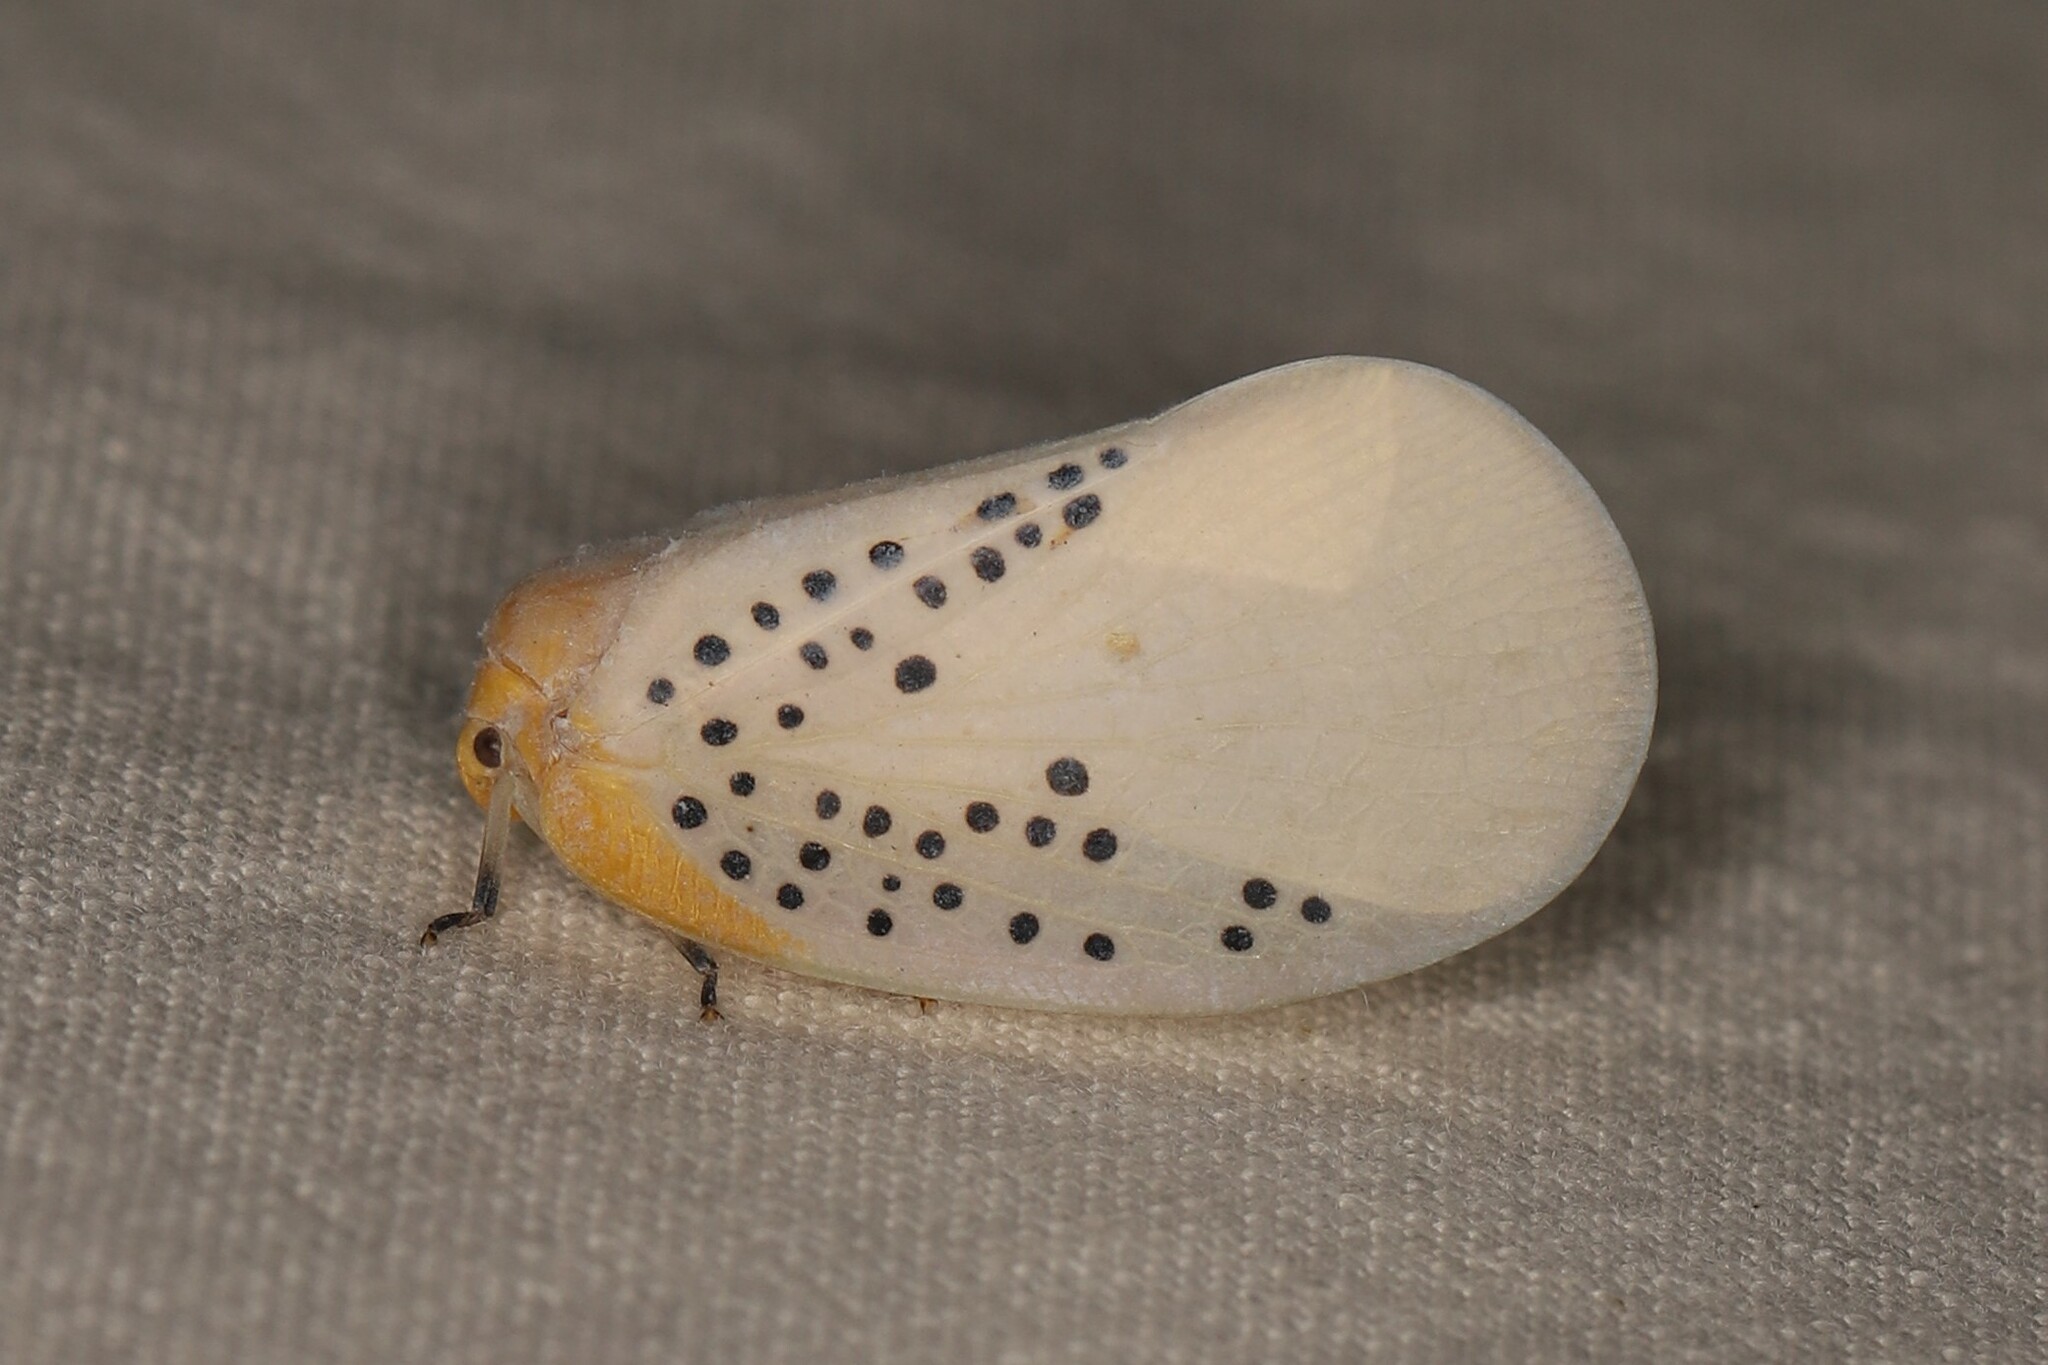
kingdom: Animalia
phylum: Arthropoda
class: Insecta
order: Hemiptera
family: Flatidae
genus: Poekilloptera
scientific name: Poekilloptera phalaenoides
